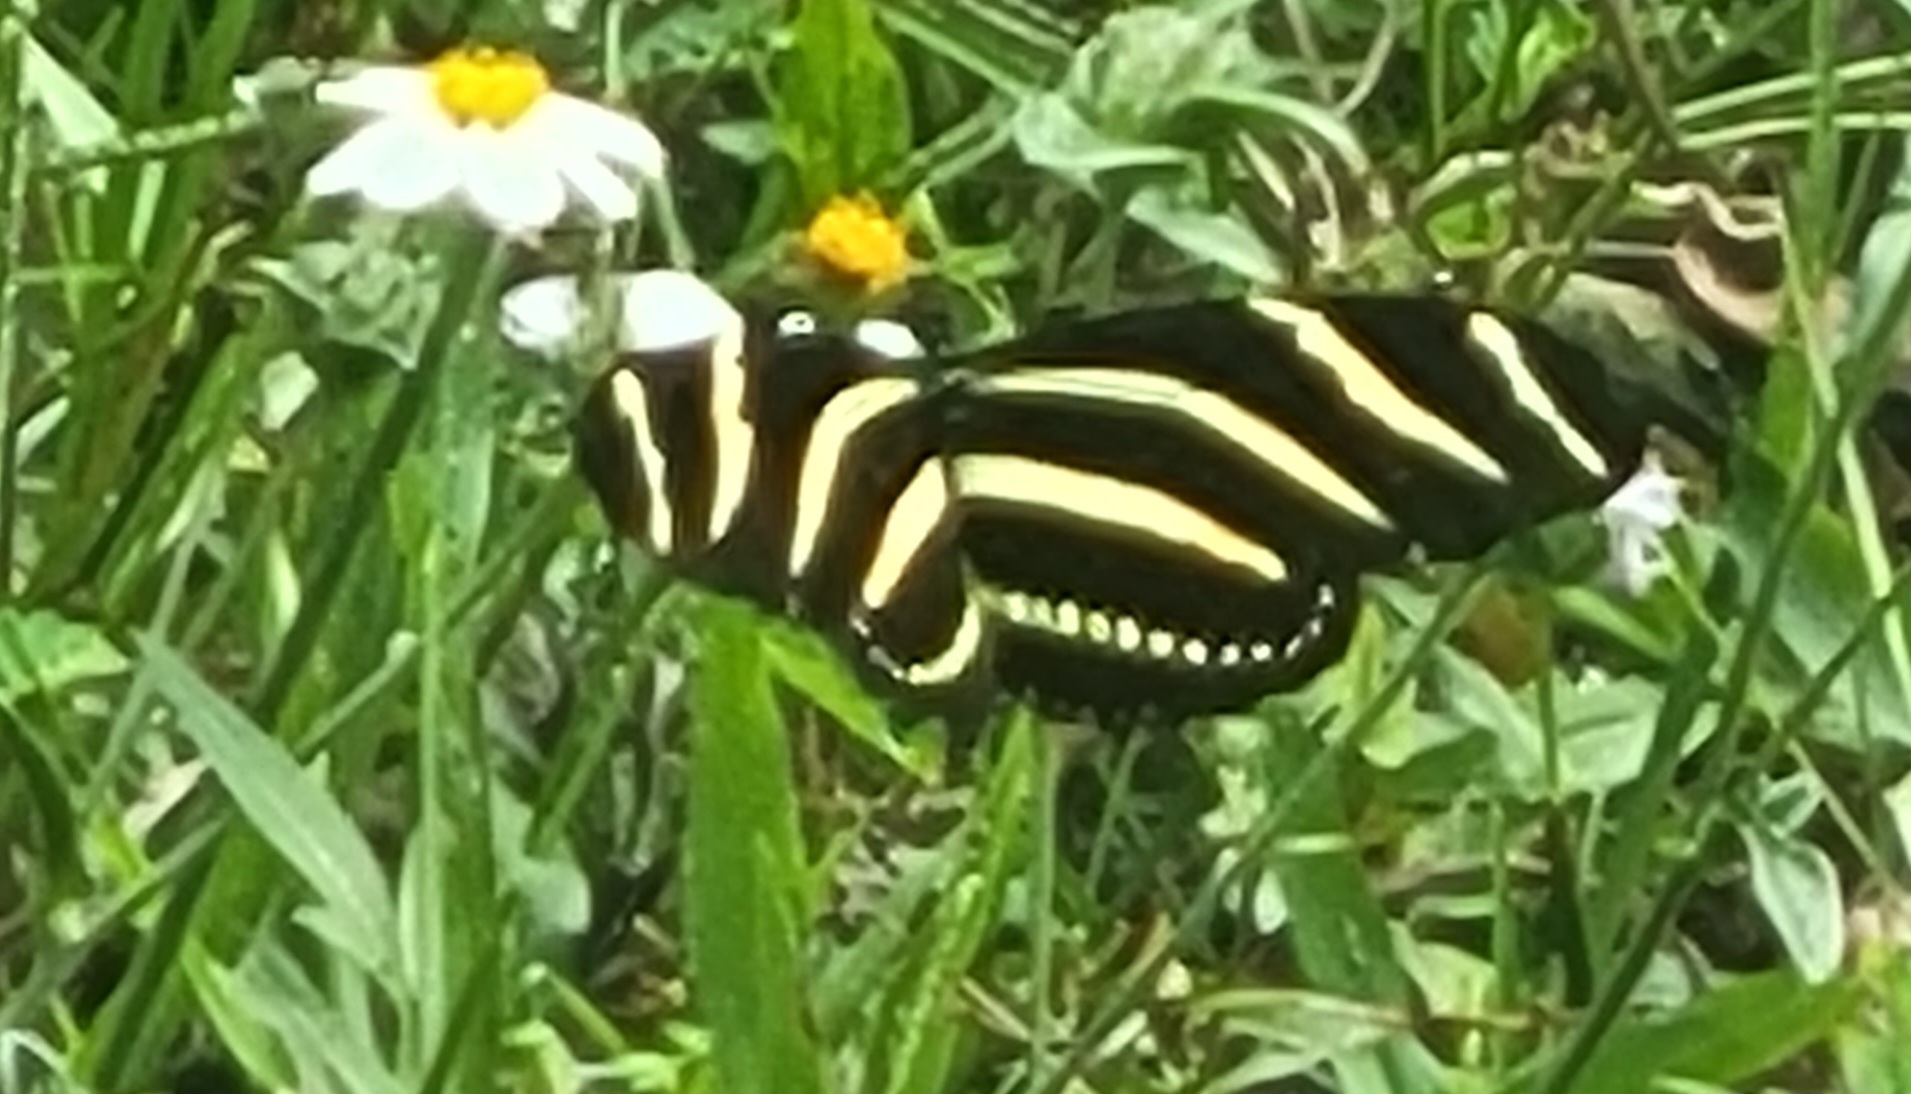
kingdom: Animalia
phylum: Arthropoda
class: Insecta
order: Lepidoptera
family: Nymphalidae
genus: Heliconius
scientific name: Heliconius charithonia
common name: Zebra long wing
